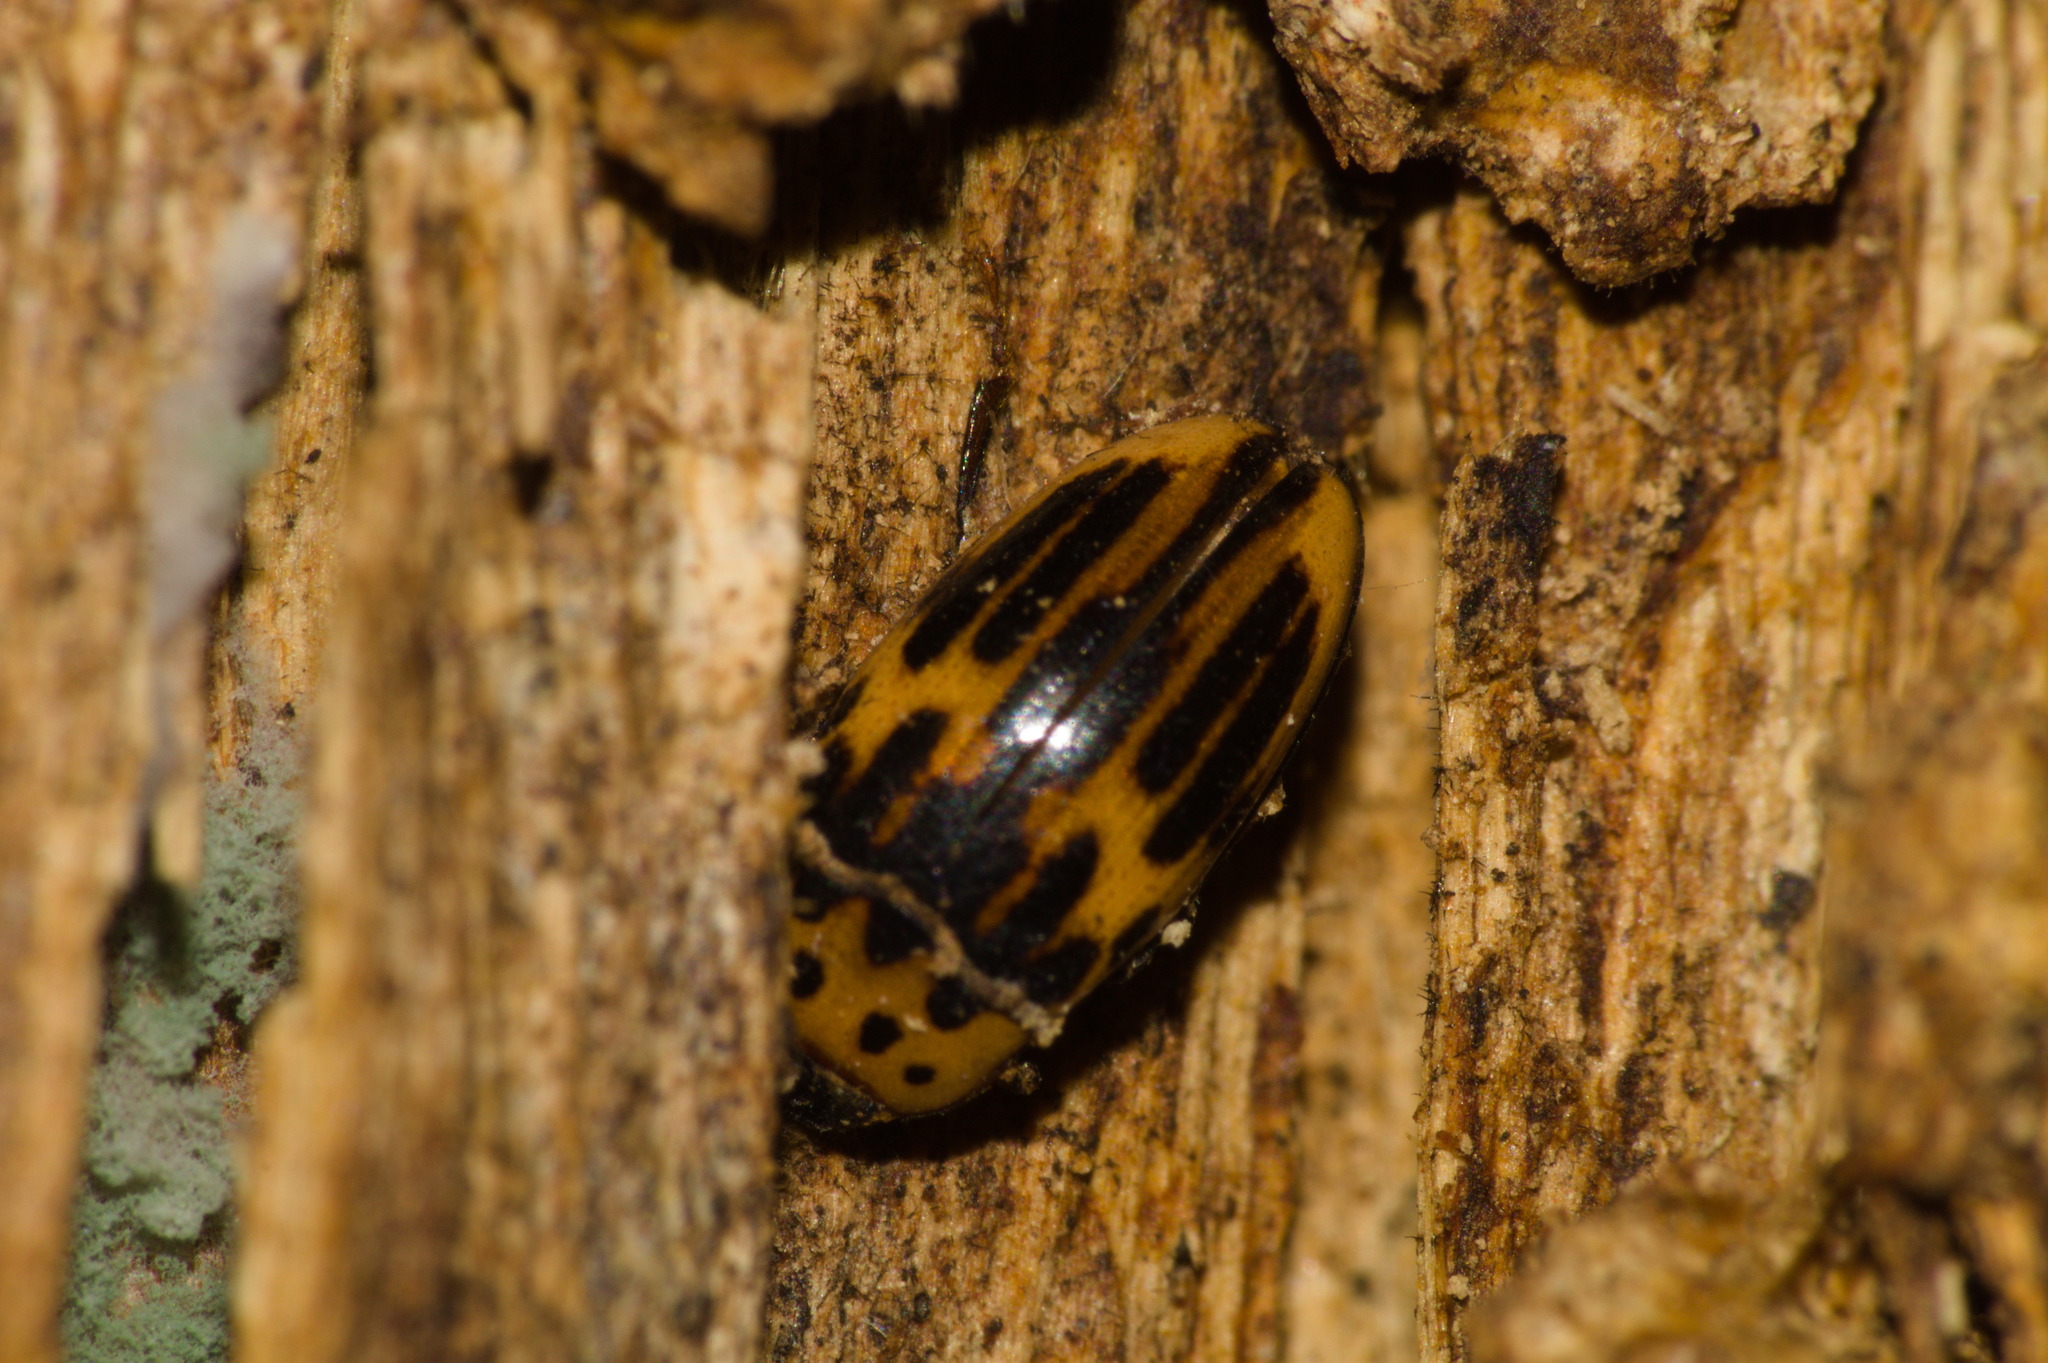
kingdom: Animalia
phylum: Arthropoda
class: Insecta
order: Coleoptera
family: Erotylidae
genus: Ischyrus
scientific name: Ischyrus
